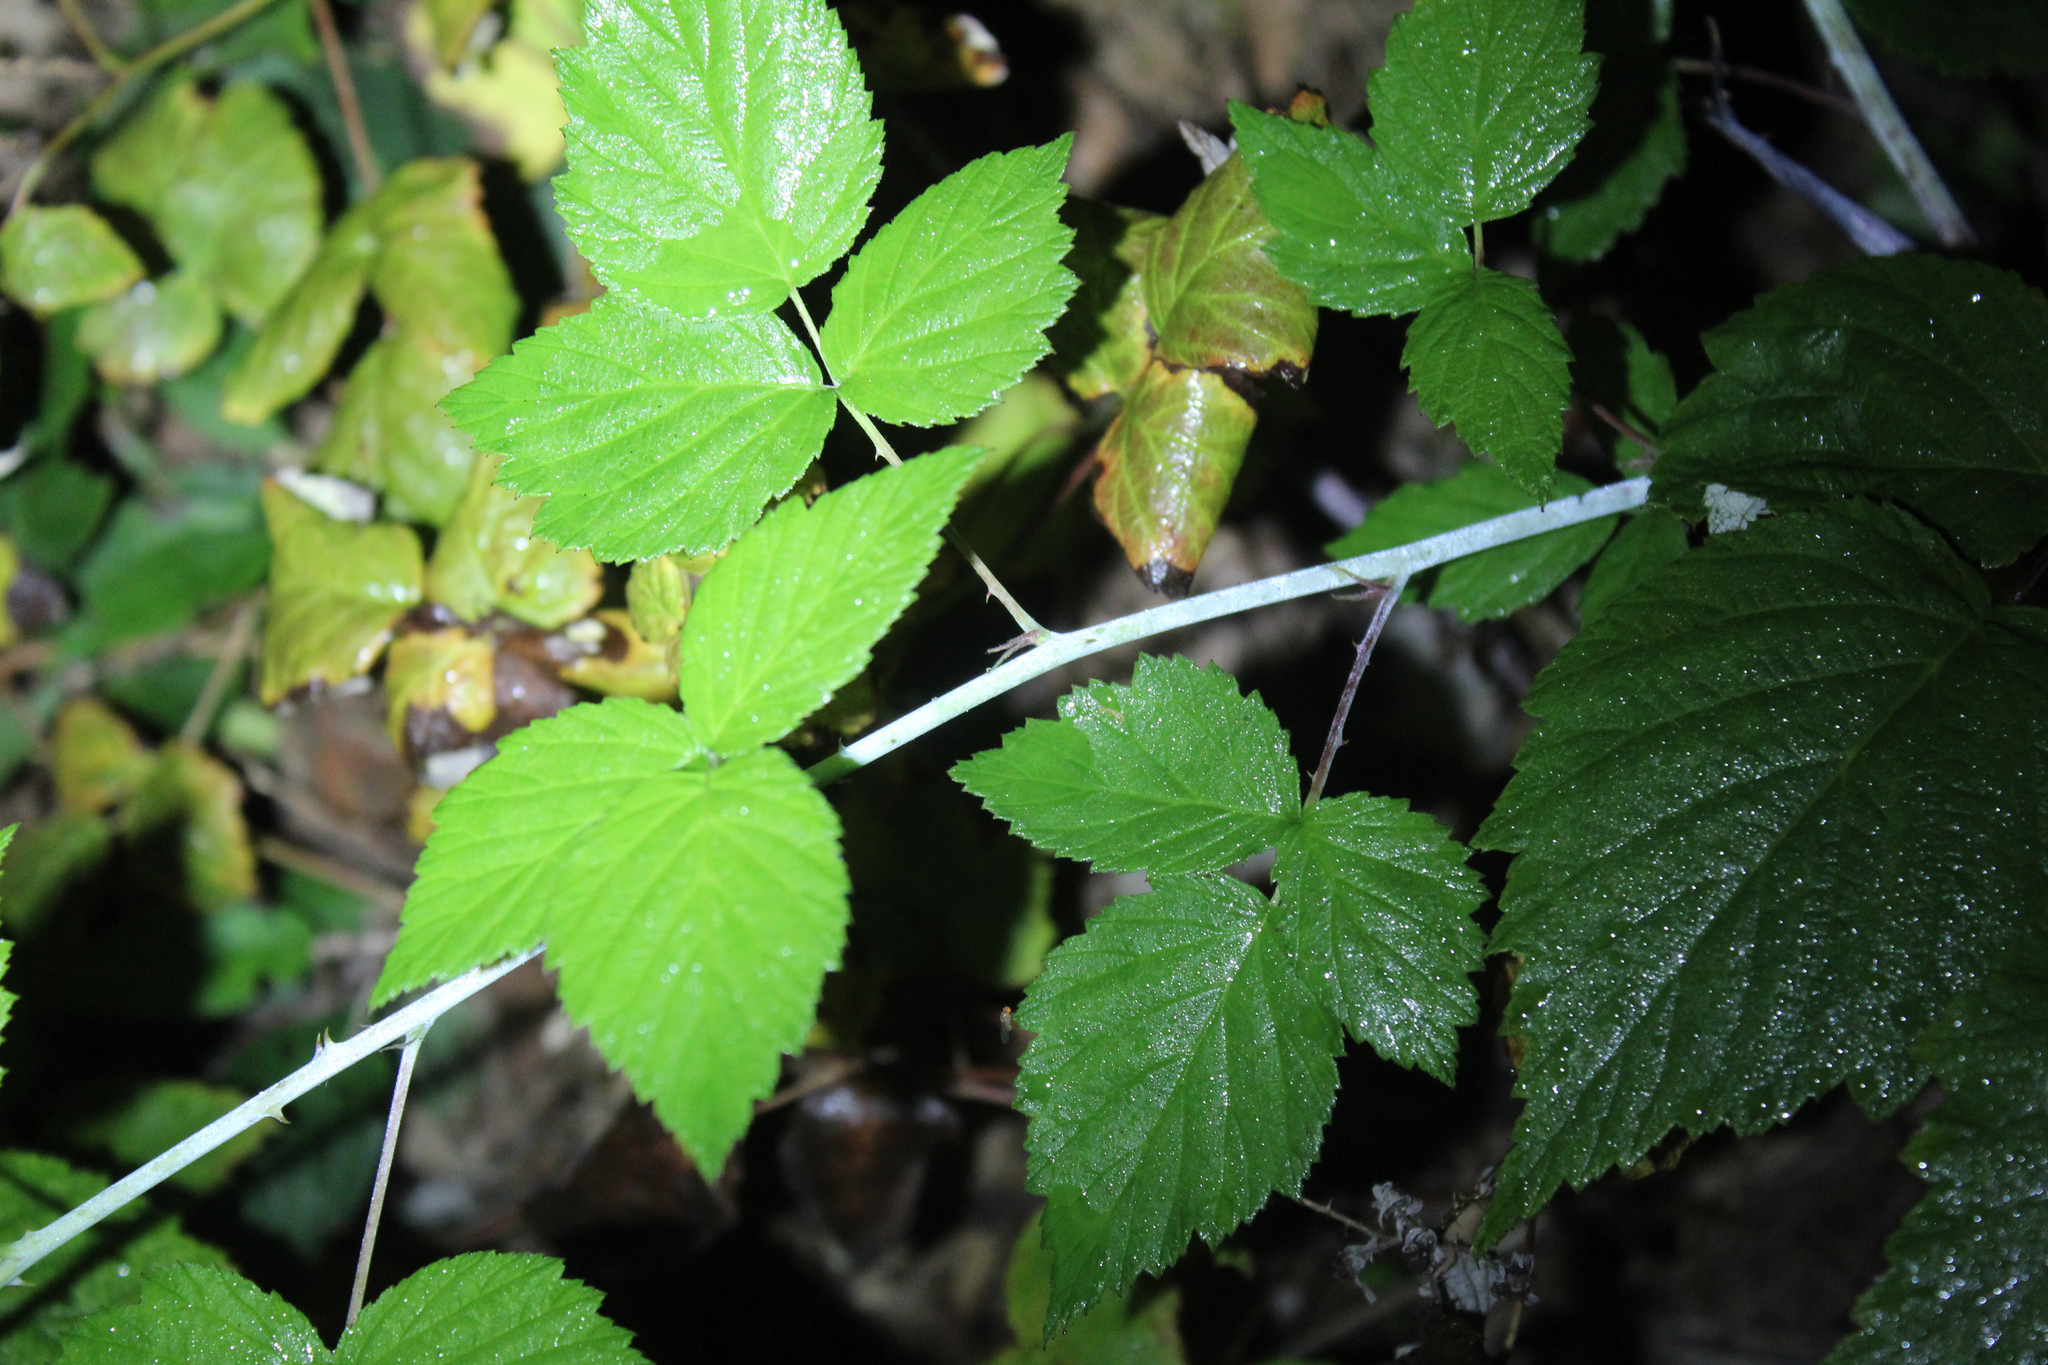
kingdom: Plantae
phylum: Tracheophyta
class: Magnoliopsida
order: Rosales
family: Rosaceae
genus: Rubus
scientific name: Rubus occidentalis
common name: Black raspberry
